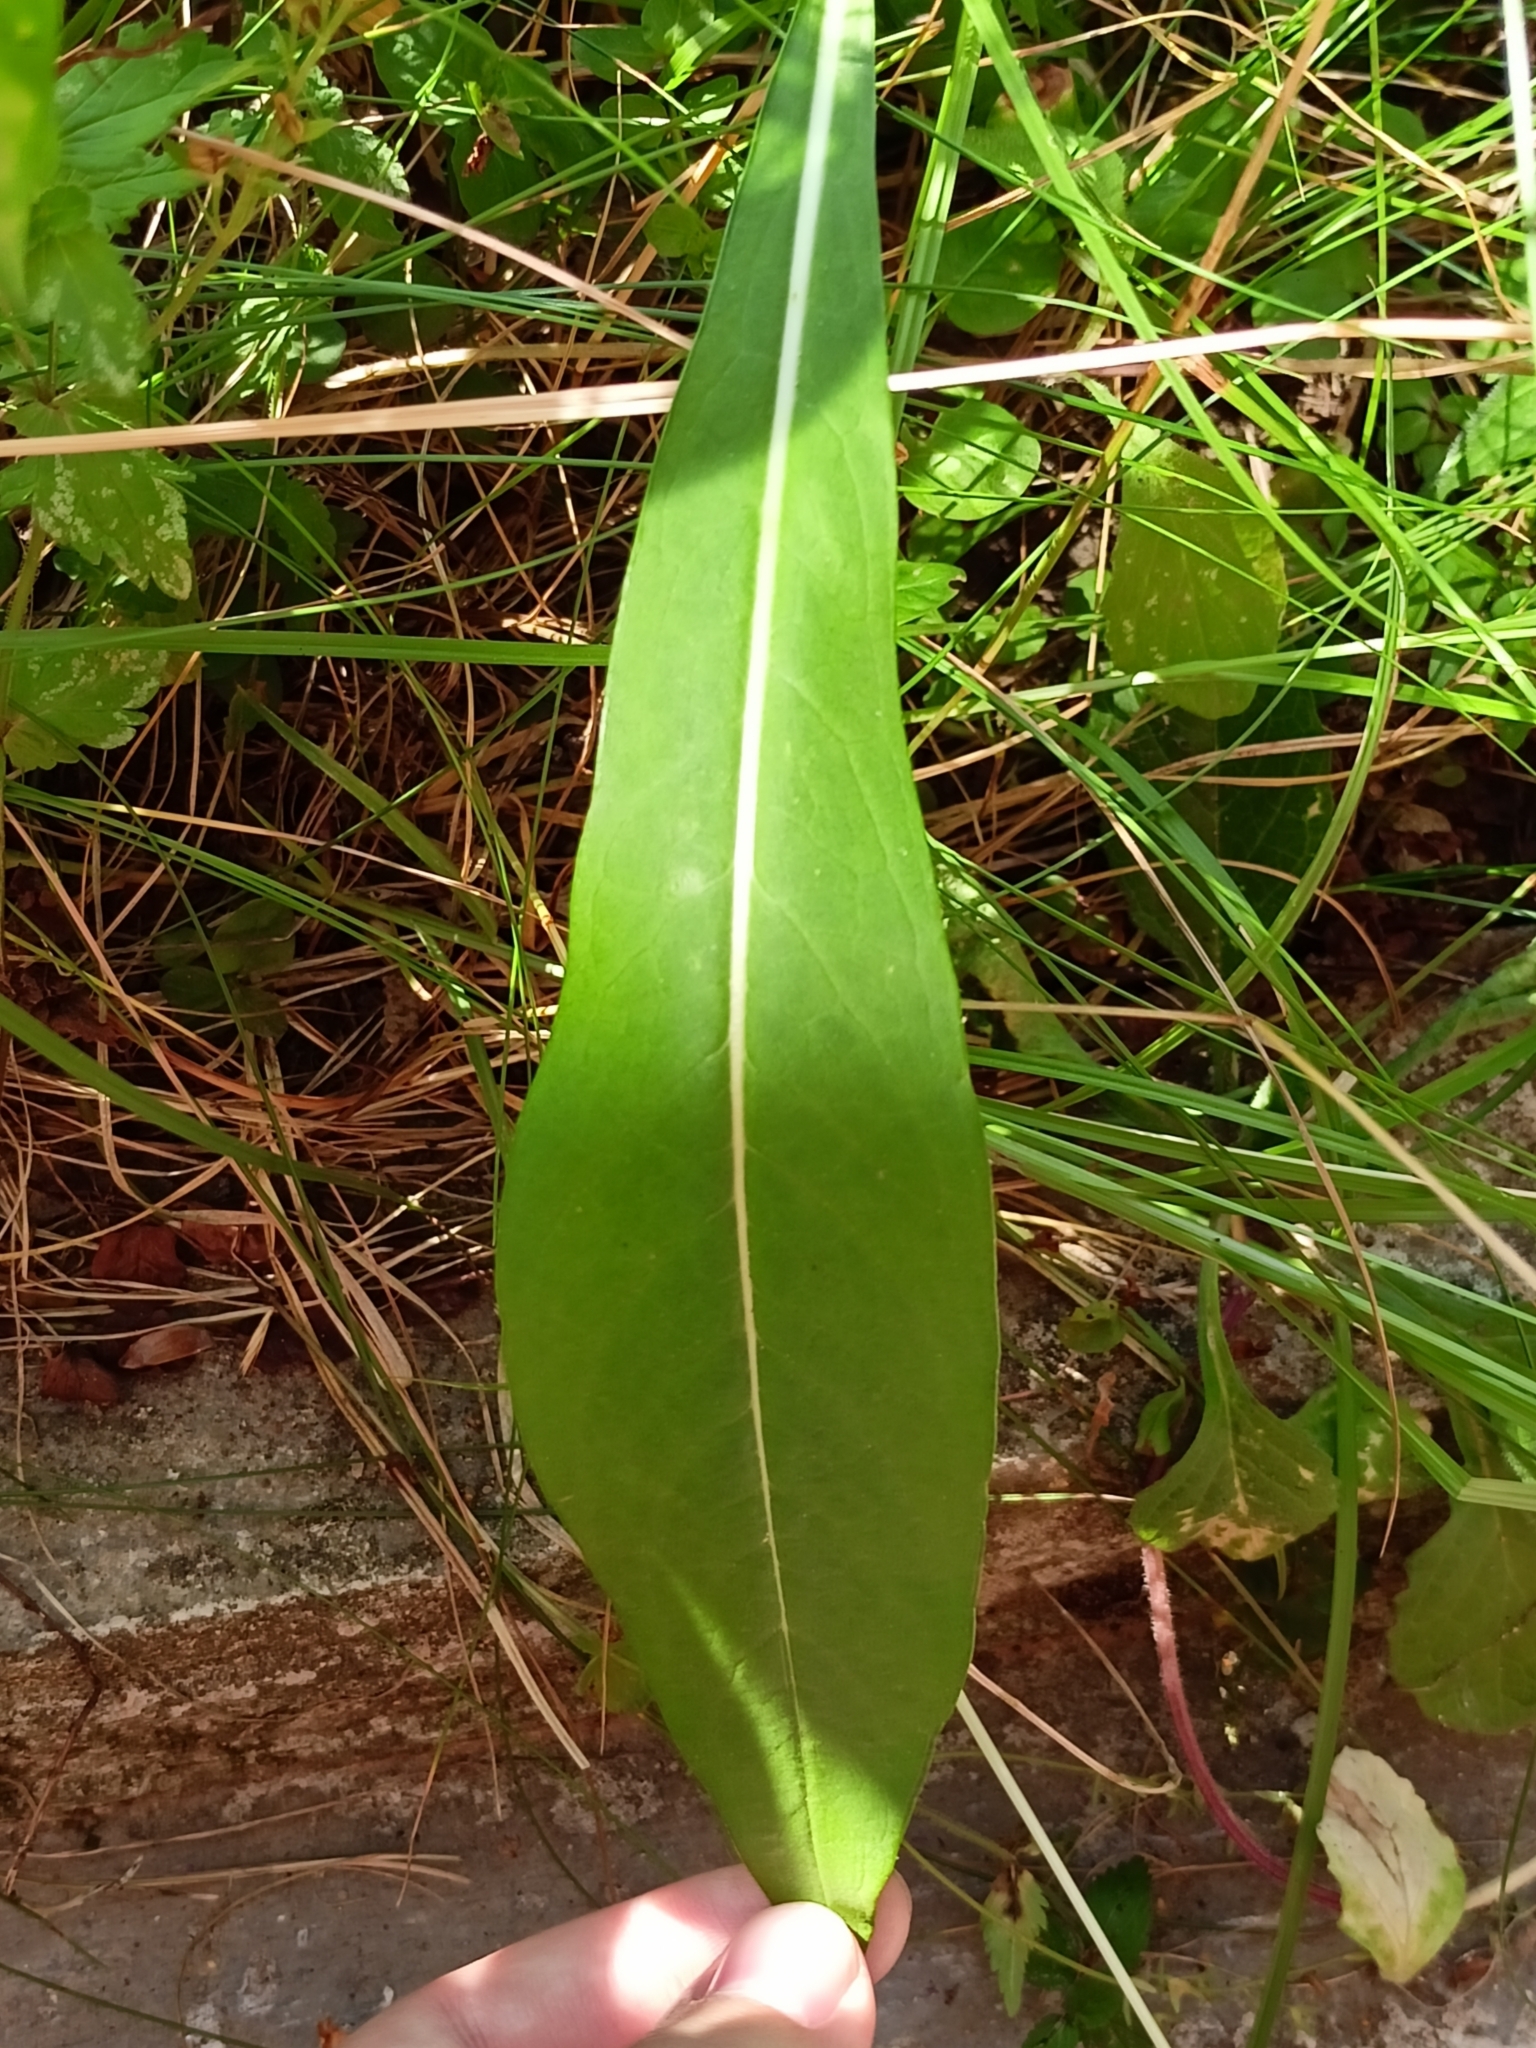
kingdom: Plantae
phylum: Tracheophyta
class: Magnoliopsida
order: Dipsacales
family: Caprifoliaceae
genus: Succisa
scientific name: Succisa pratensis
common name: Devil's-bit
